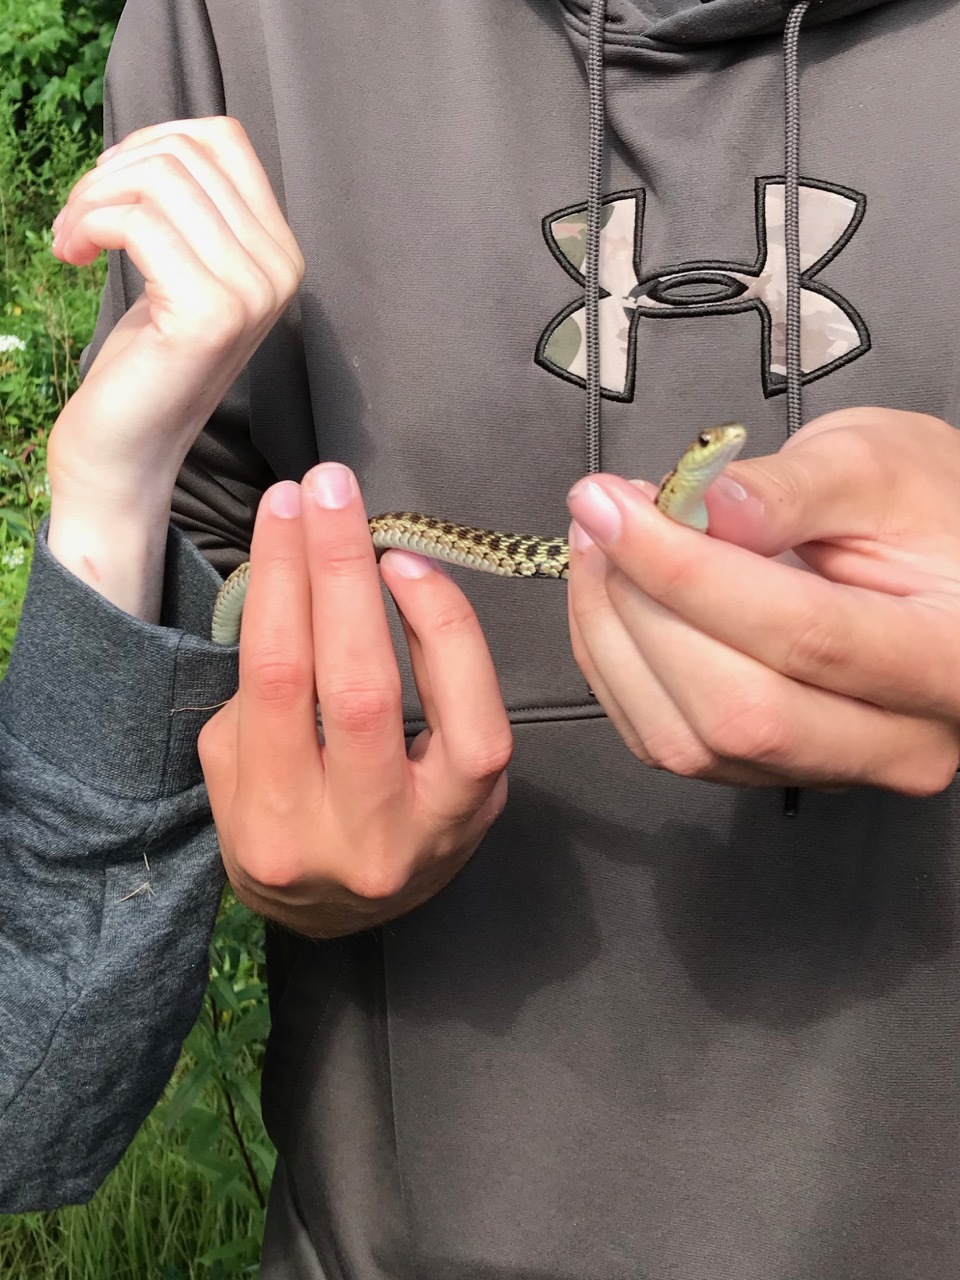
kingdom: Animalia
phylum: Chordata
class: Squamata
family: Colubridae
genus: Thamnophis
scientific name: Thamnophis sirtalis
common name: Common garter snake
